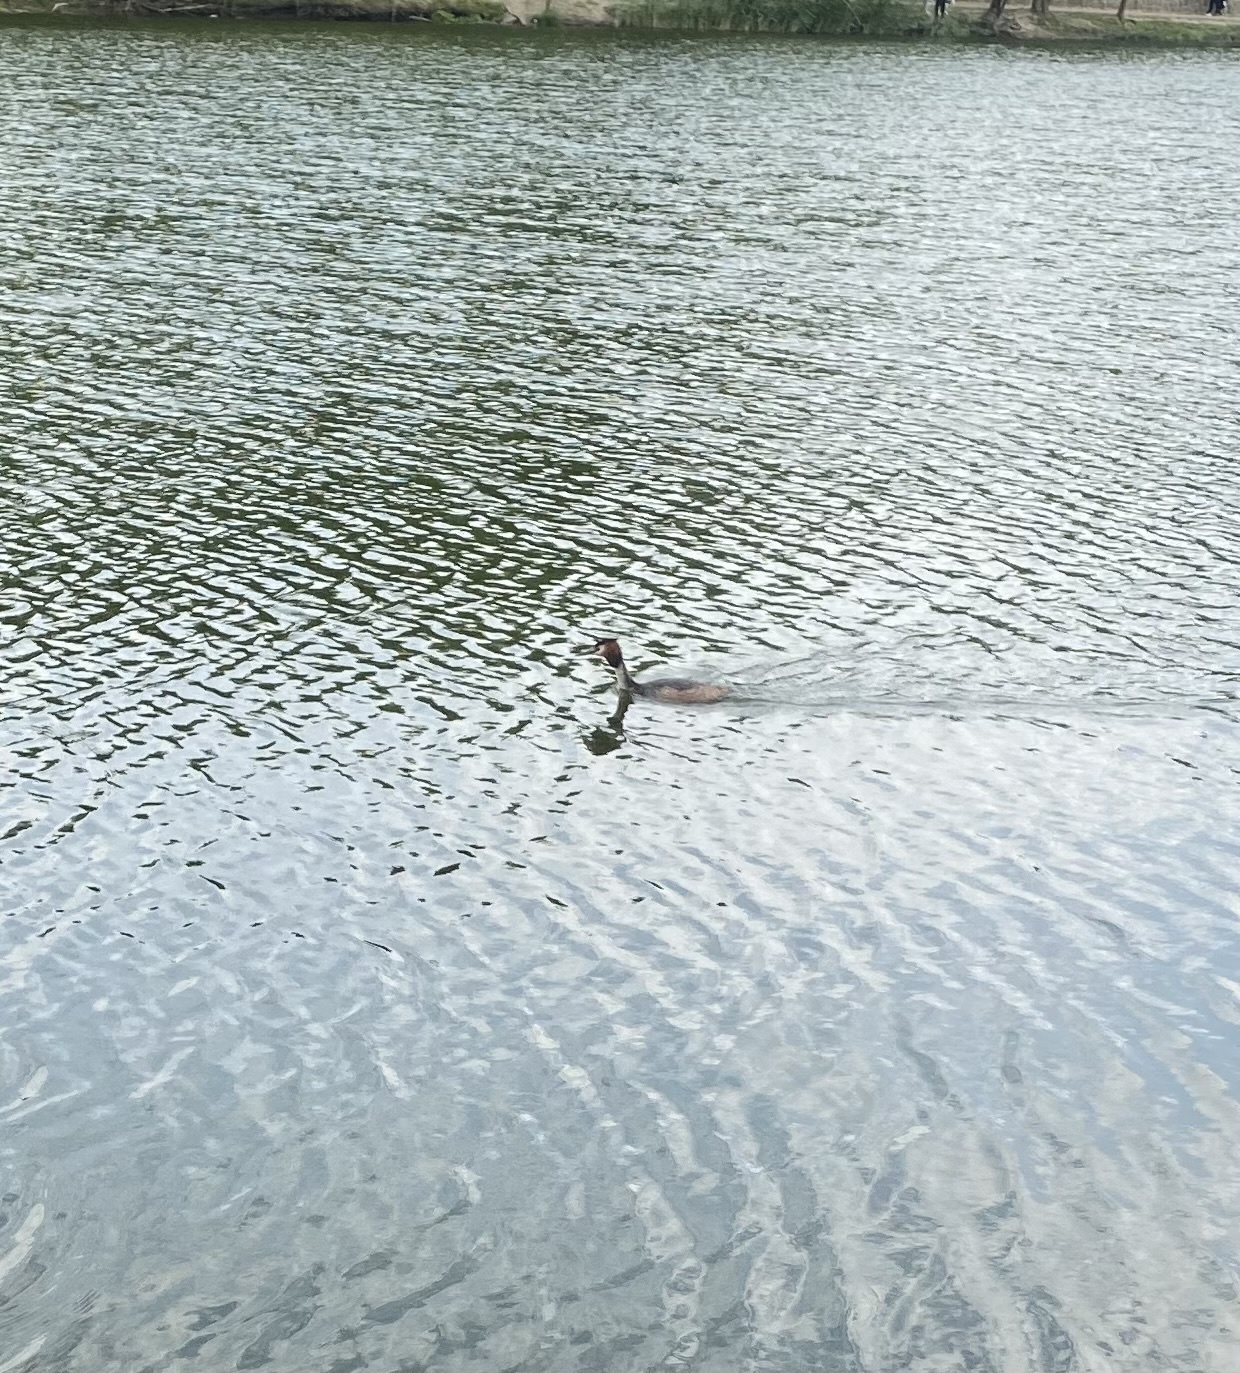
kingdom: Animalia
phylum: Chordata
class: Aves
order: Podicipediformes
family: Podicipedidae
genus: Podiceps
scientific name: Podiceps cristatus
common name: Great crested grebe
